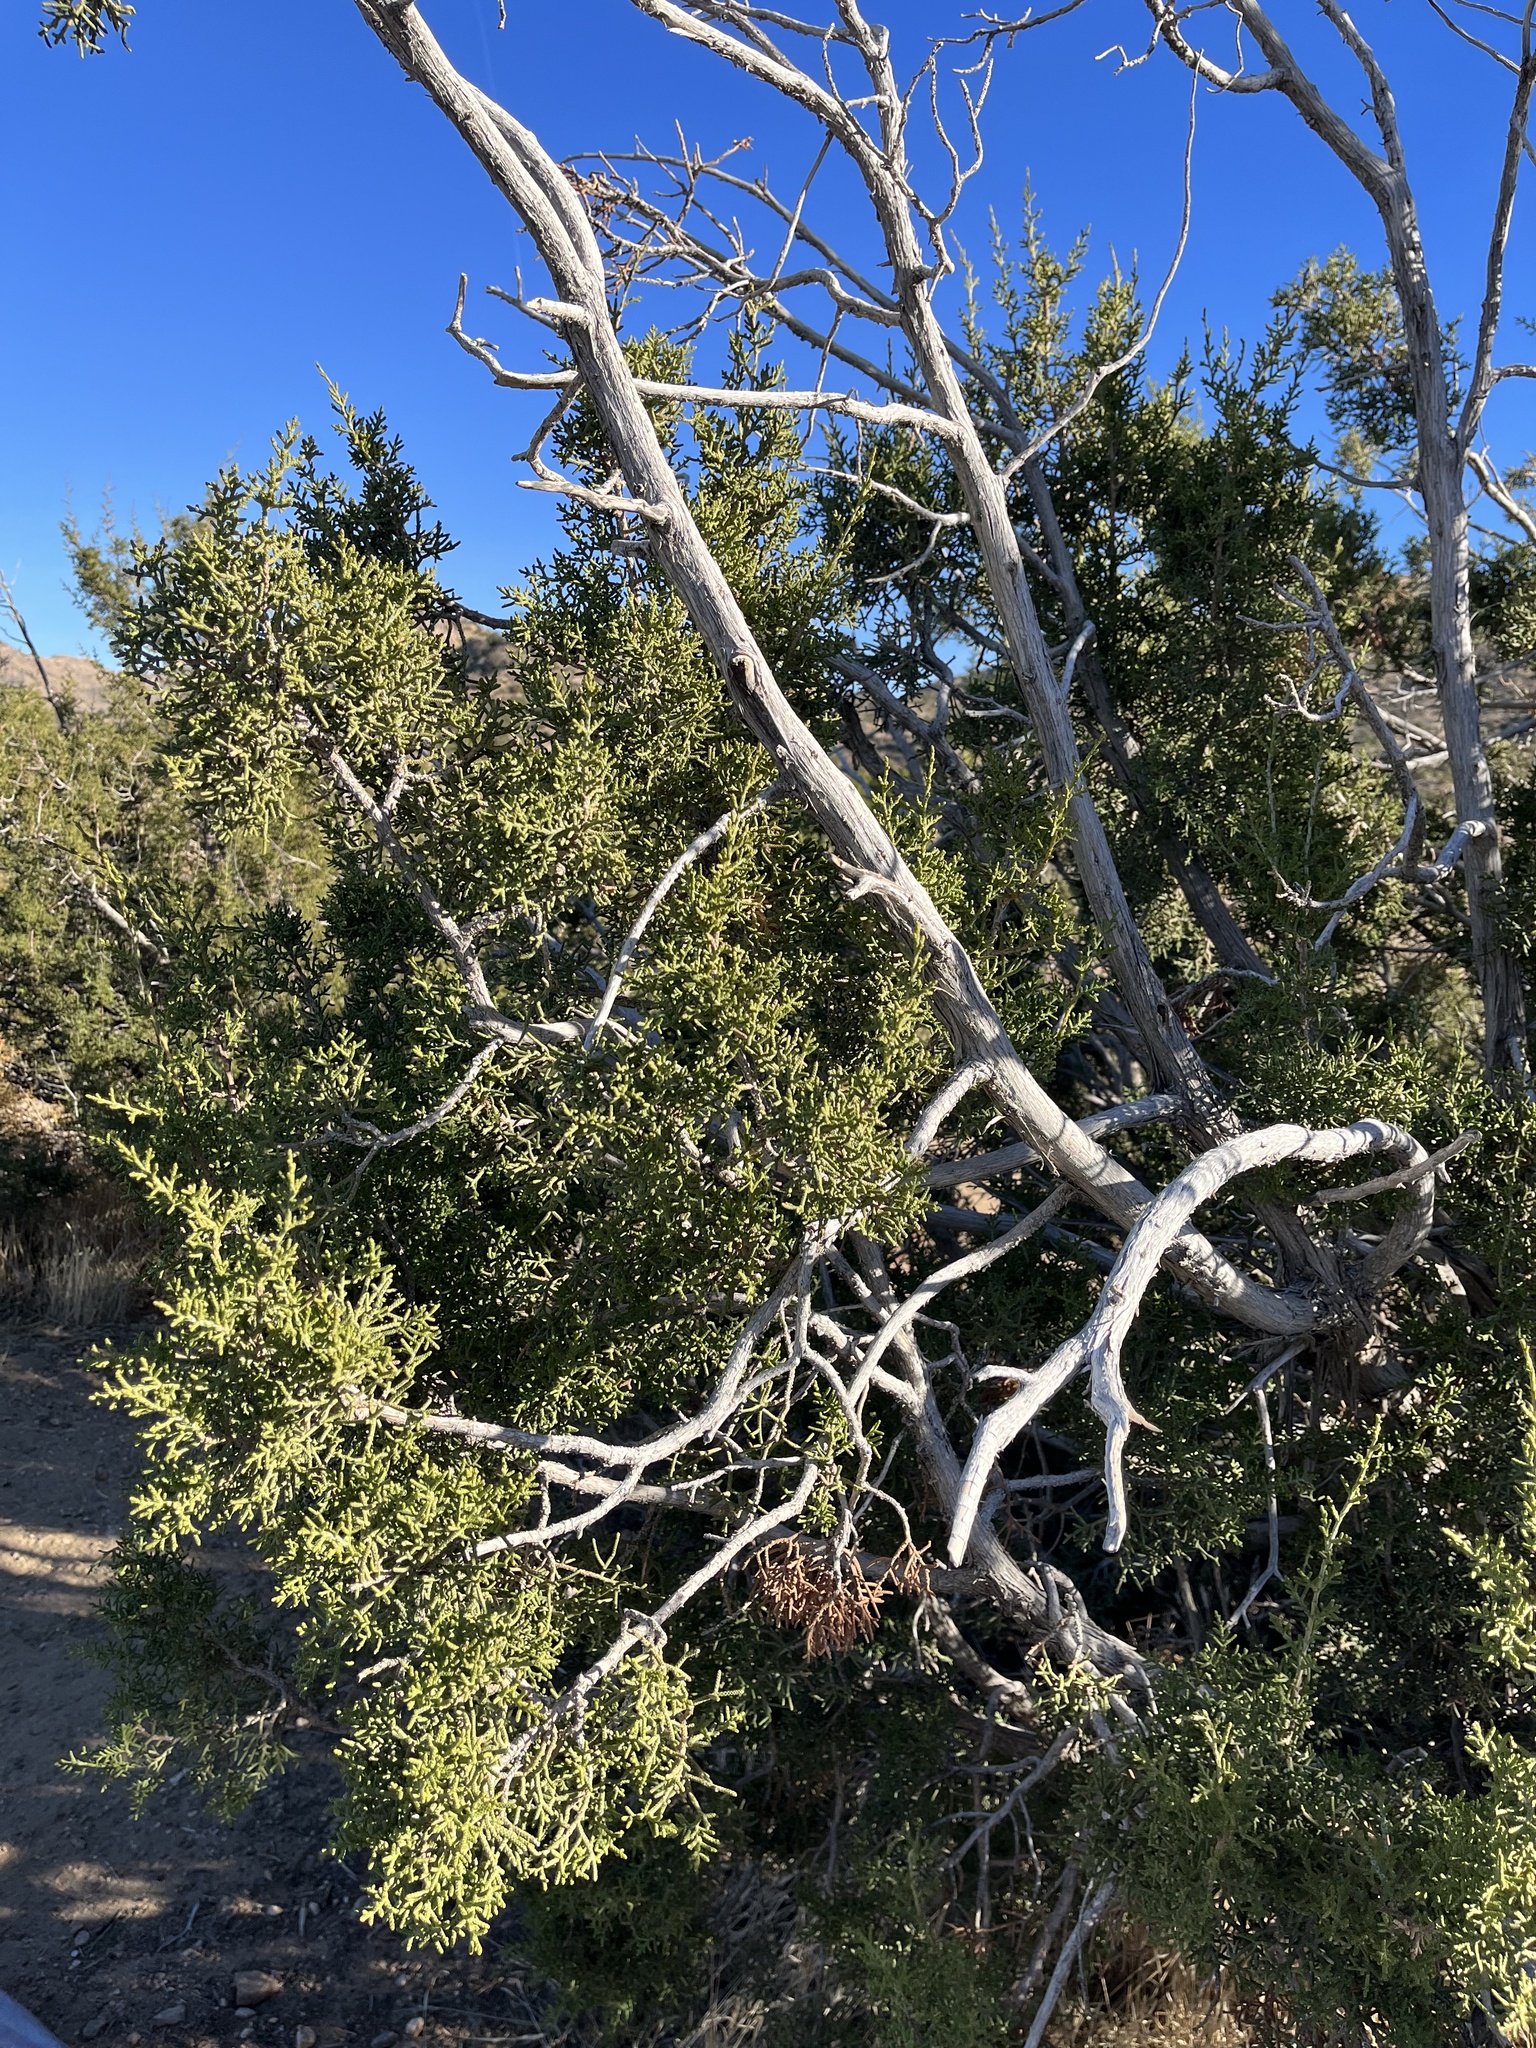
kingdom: Plantae
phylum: Tracheophyta
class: Pinopsida
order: Pinales
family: Cupressaceae
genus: Juniperus
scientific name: Juniperus californica
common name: California juniper
